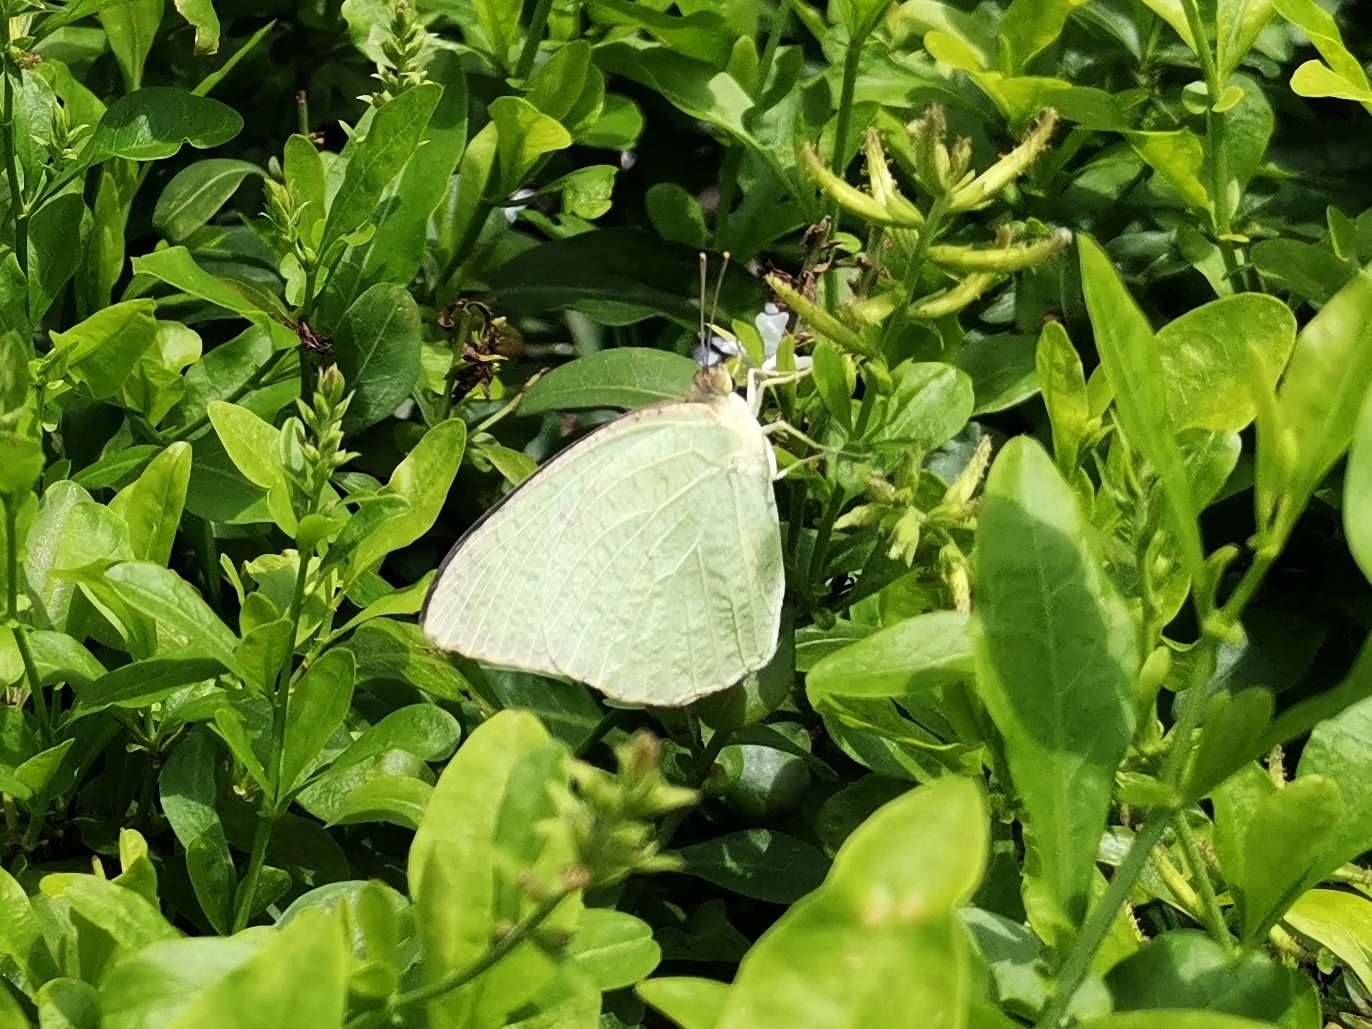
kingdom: Animalia
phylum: Arthropoda
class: Insecta
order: Lepidoptera
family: Pieridae
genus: Catopsilia
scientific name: Catopsilia pyranthe
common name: Mottled emigrant
